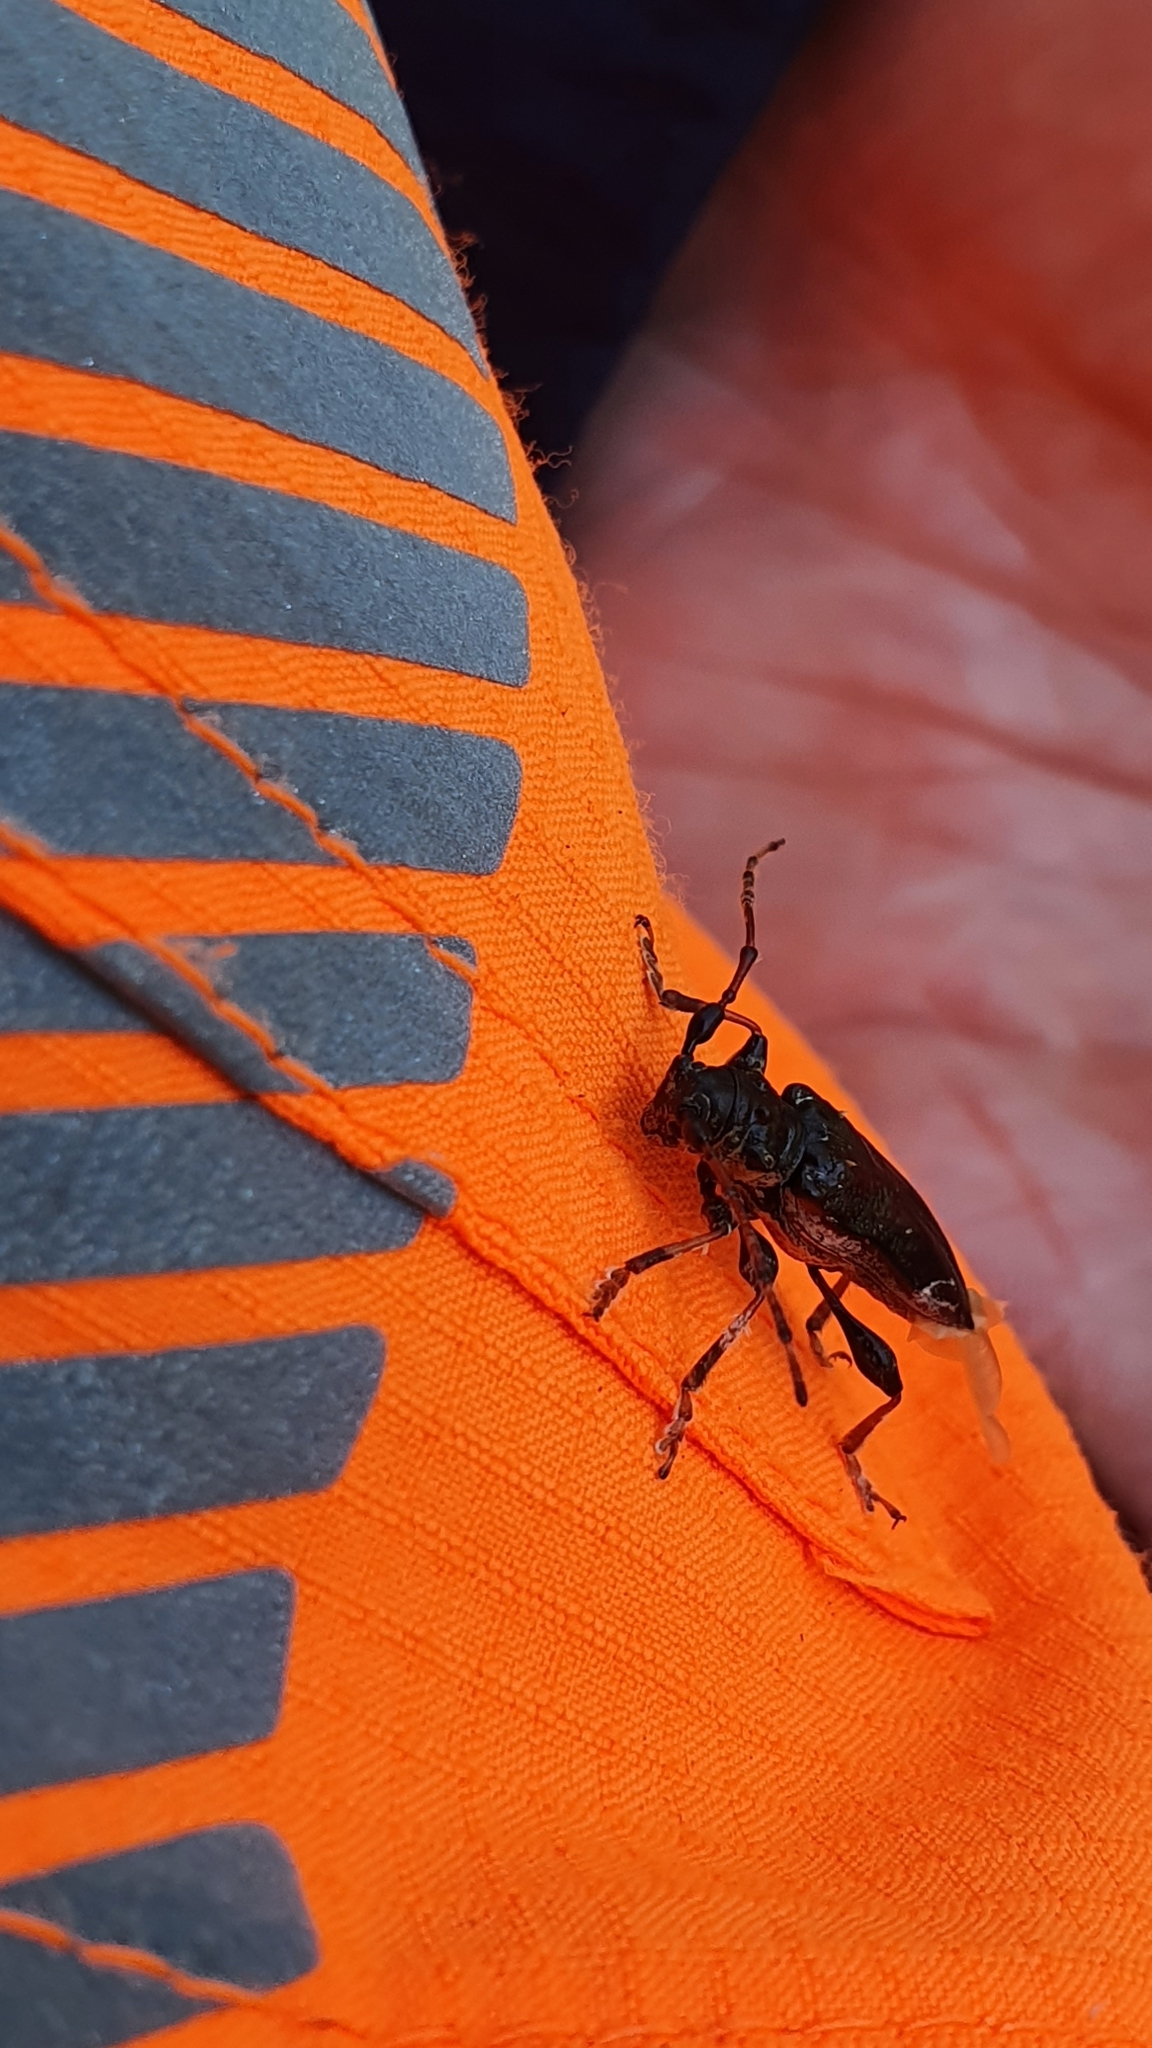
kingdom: Animalia
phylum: Arthropoda
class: Insecta
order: Coleoptera
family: Cerambycidae
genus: Tetrorea
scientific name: Tetrorea cilipes
